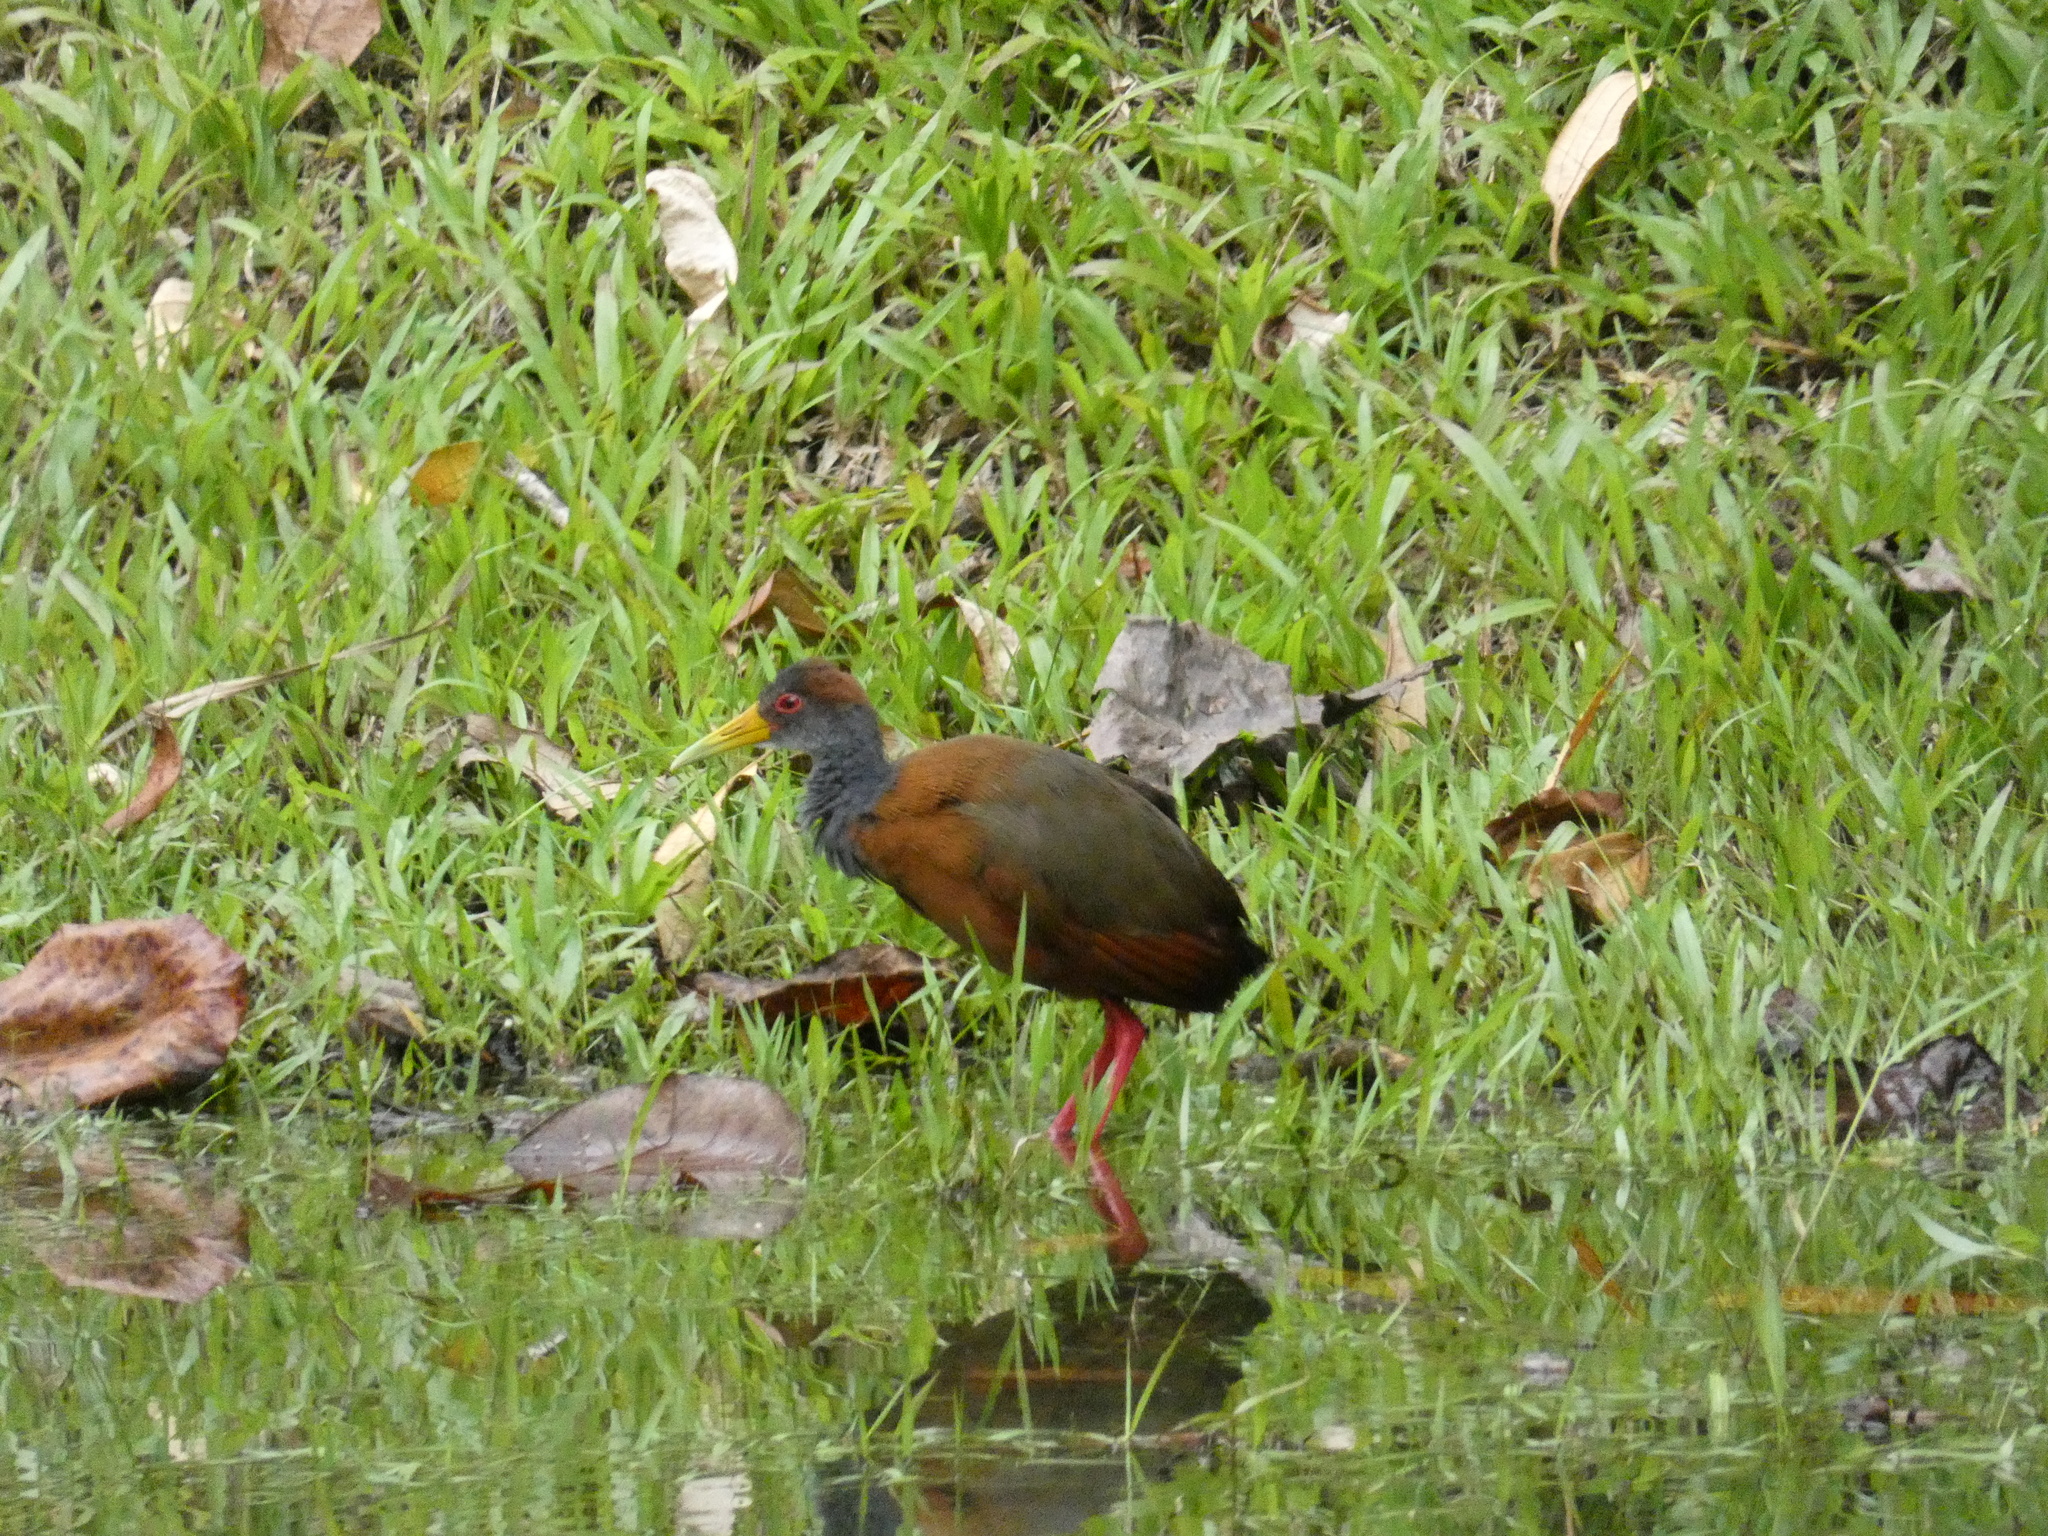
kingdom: Animalia
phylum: Chordata
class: Aves
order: Gruiformes
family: Rallidae
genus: Aramides
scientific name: Aramides albiventris
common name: Russet-naped wood-rail
